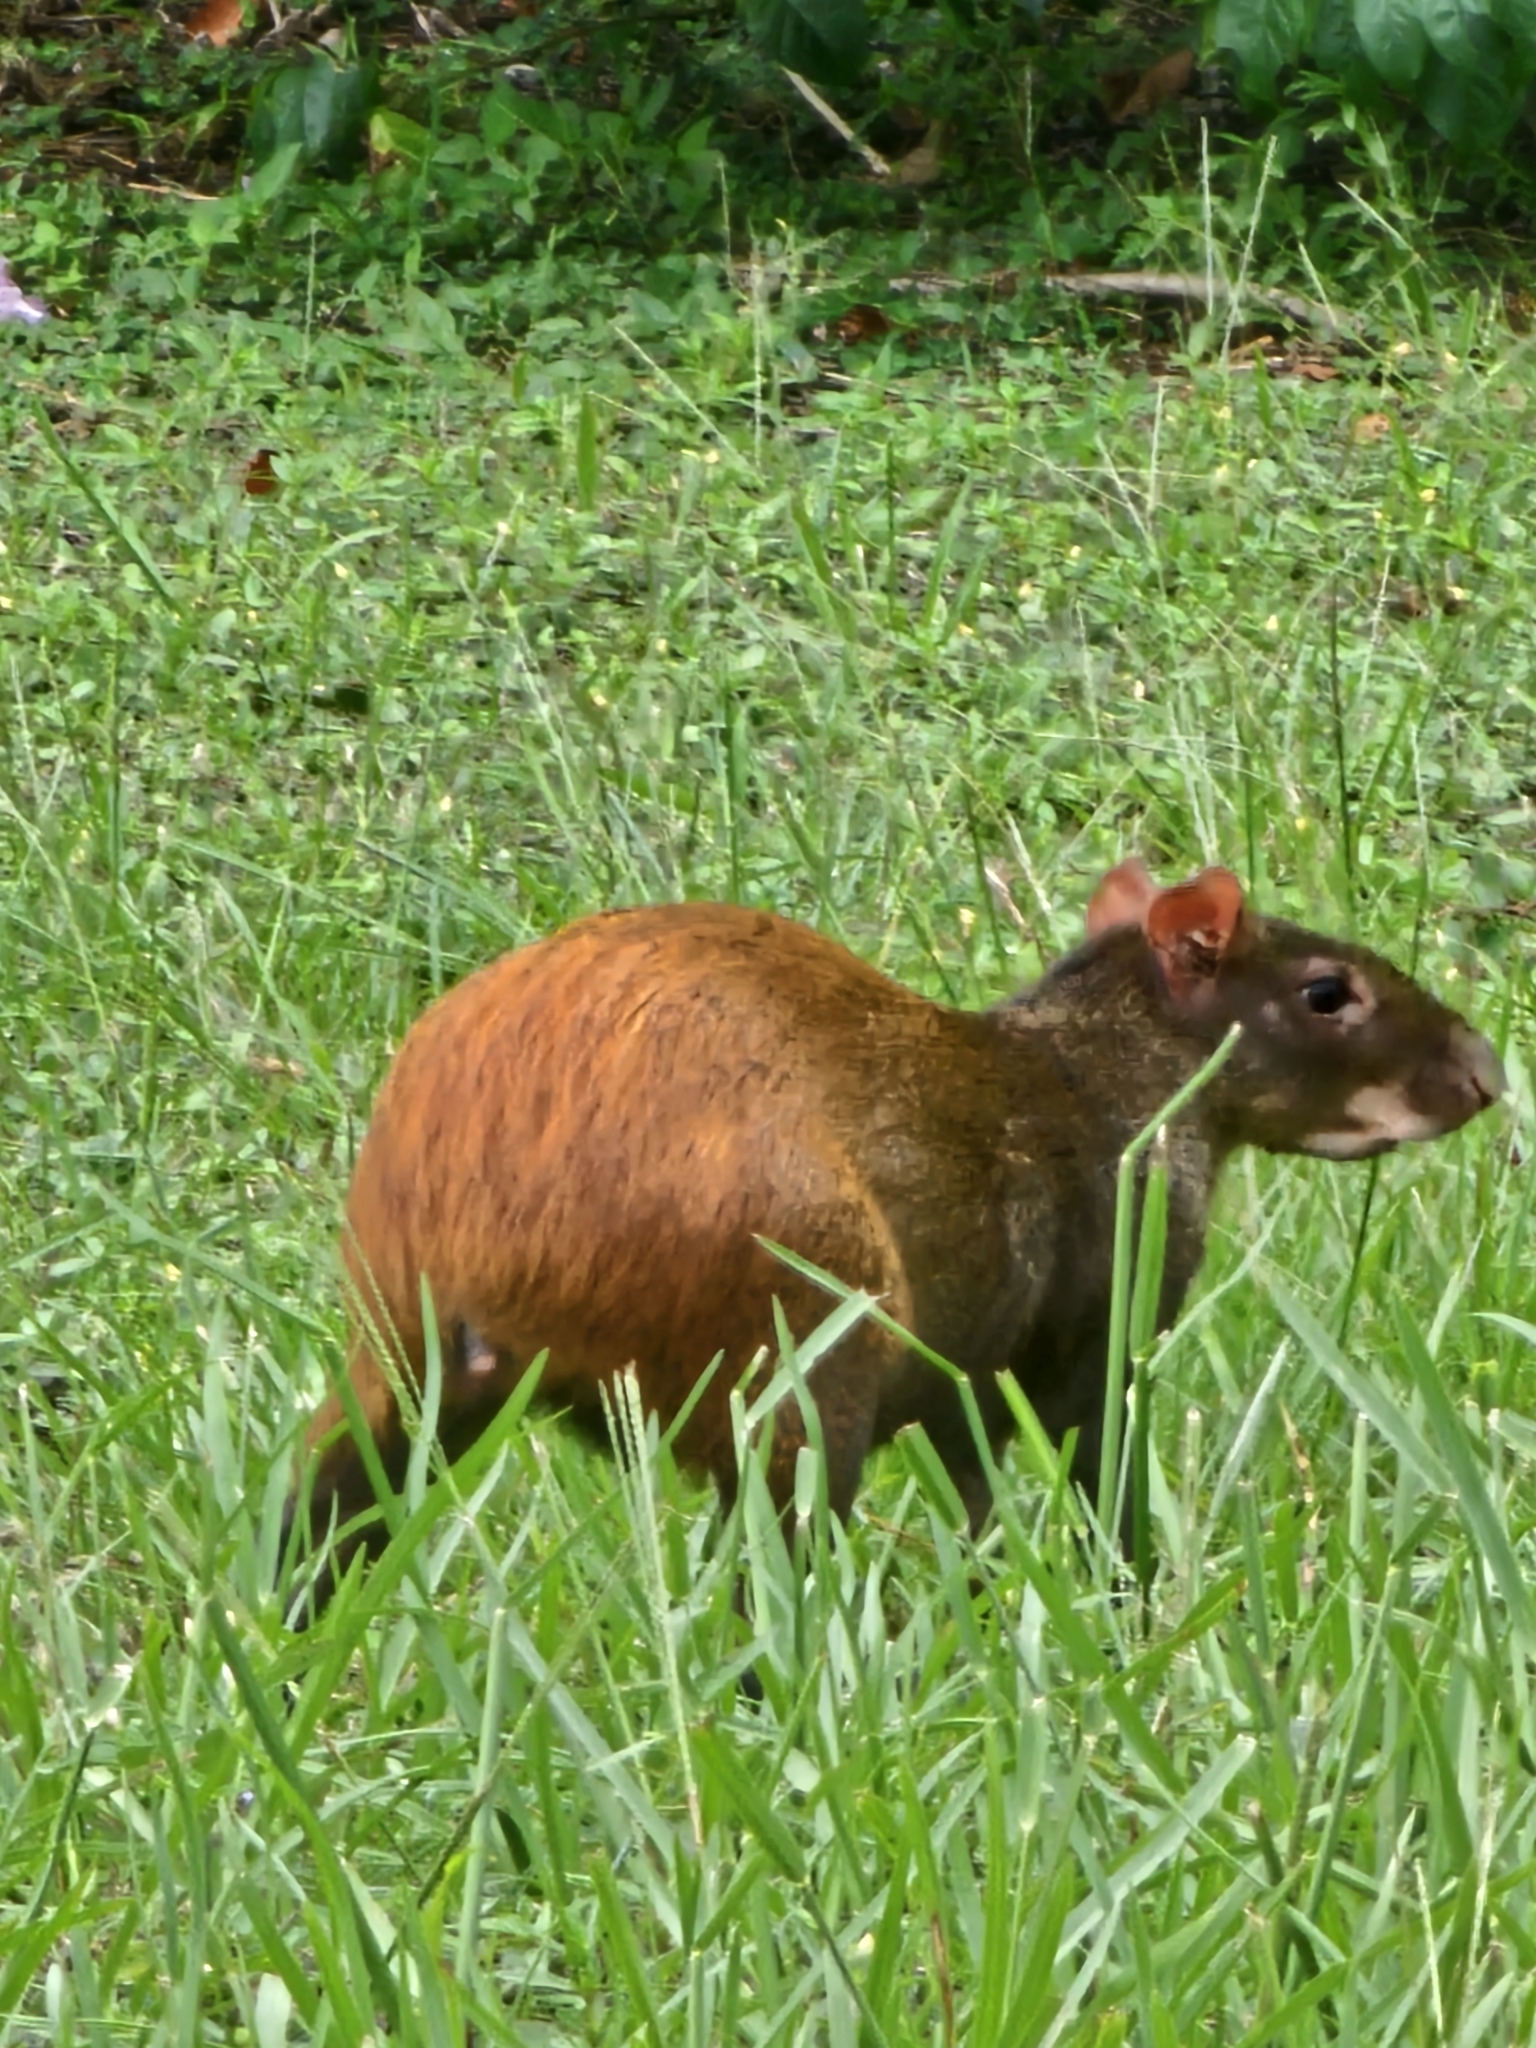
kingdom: Animalia
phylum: Chordata
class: Mammalia
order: Rodentia
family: Dasyproctidae
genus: Dasyprocta
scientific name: Dasyprocta leporina
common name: Red-rumped agouti
